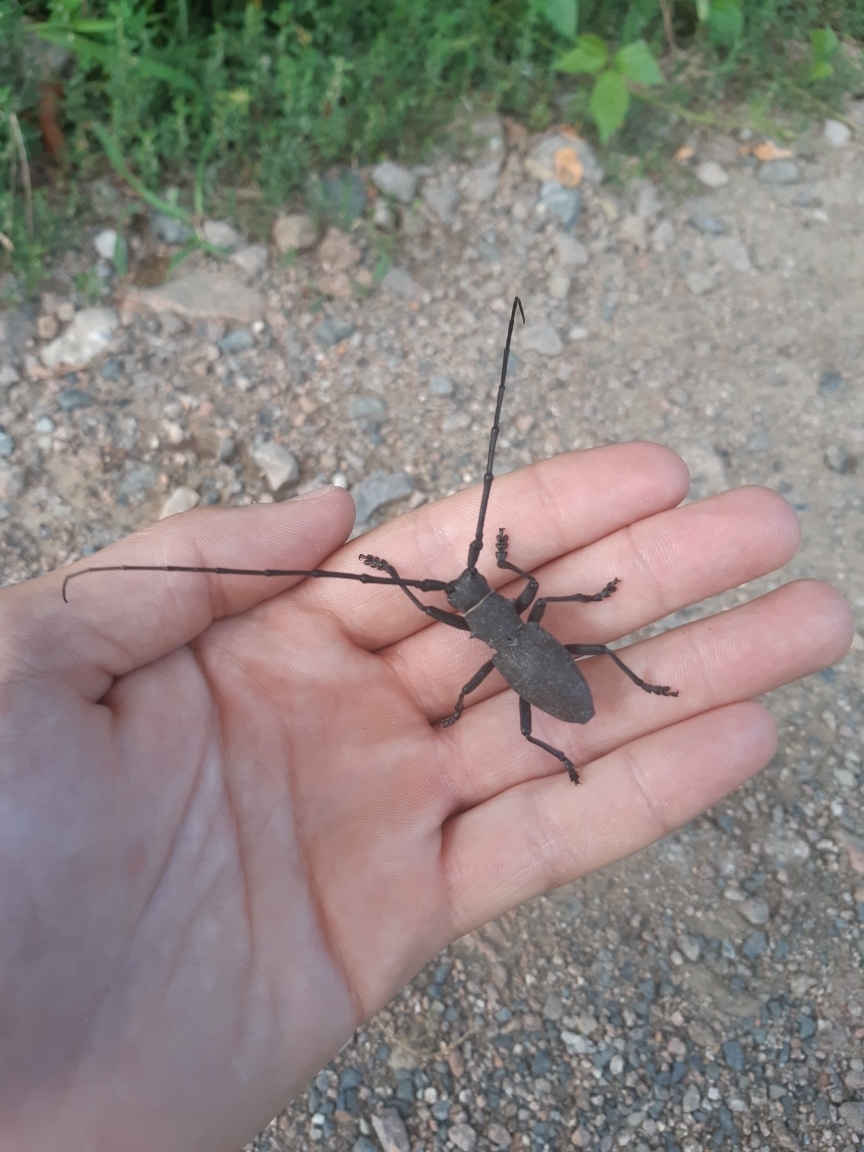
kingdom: Animalia
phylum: Arthropoda
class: Insecta
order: Coleoptera
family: Cerambycidae
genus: Morimus
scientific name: Morimus asper
